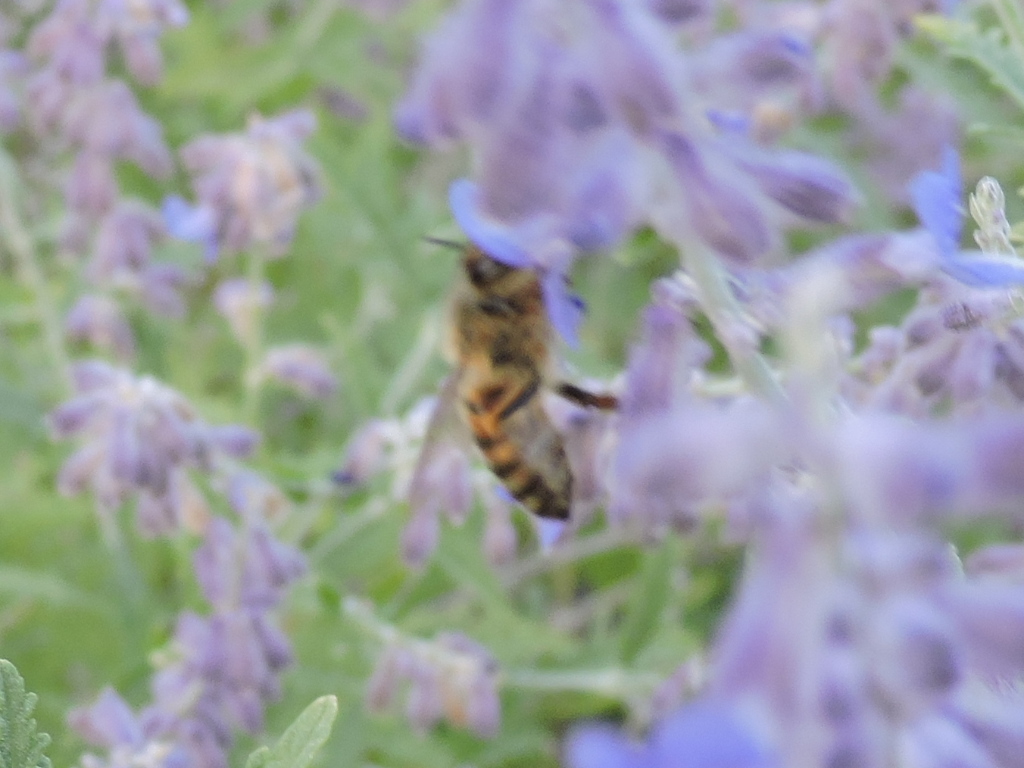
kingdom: Animalia
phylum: Arthropoda
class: Insecta
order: Hymenoptera
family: Apidae
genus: Apis
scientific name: Apis mellifera
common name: Honey bee
